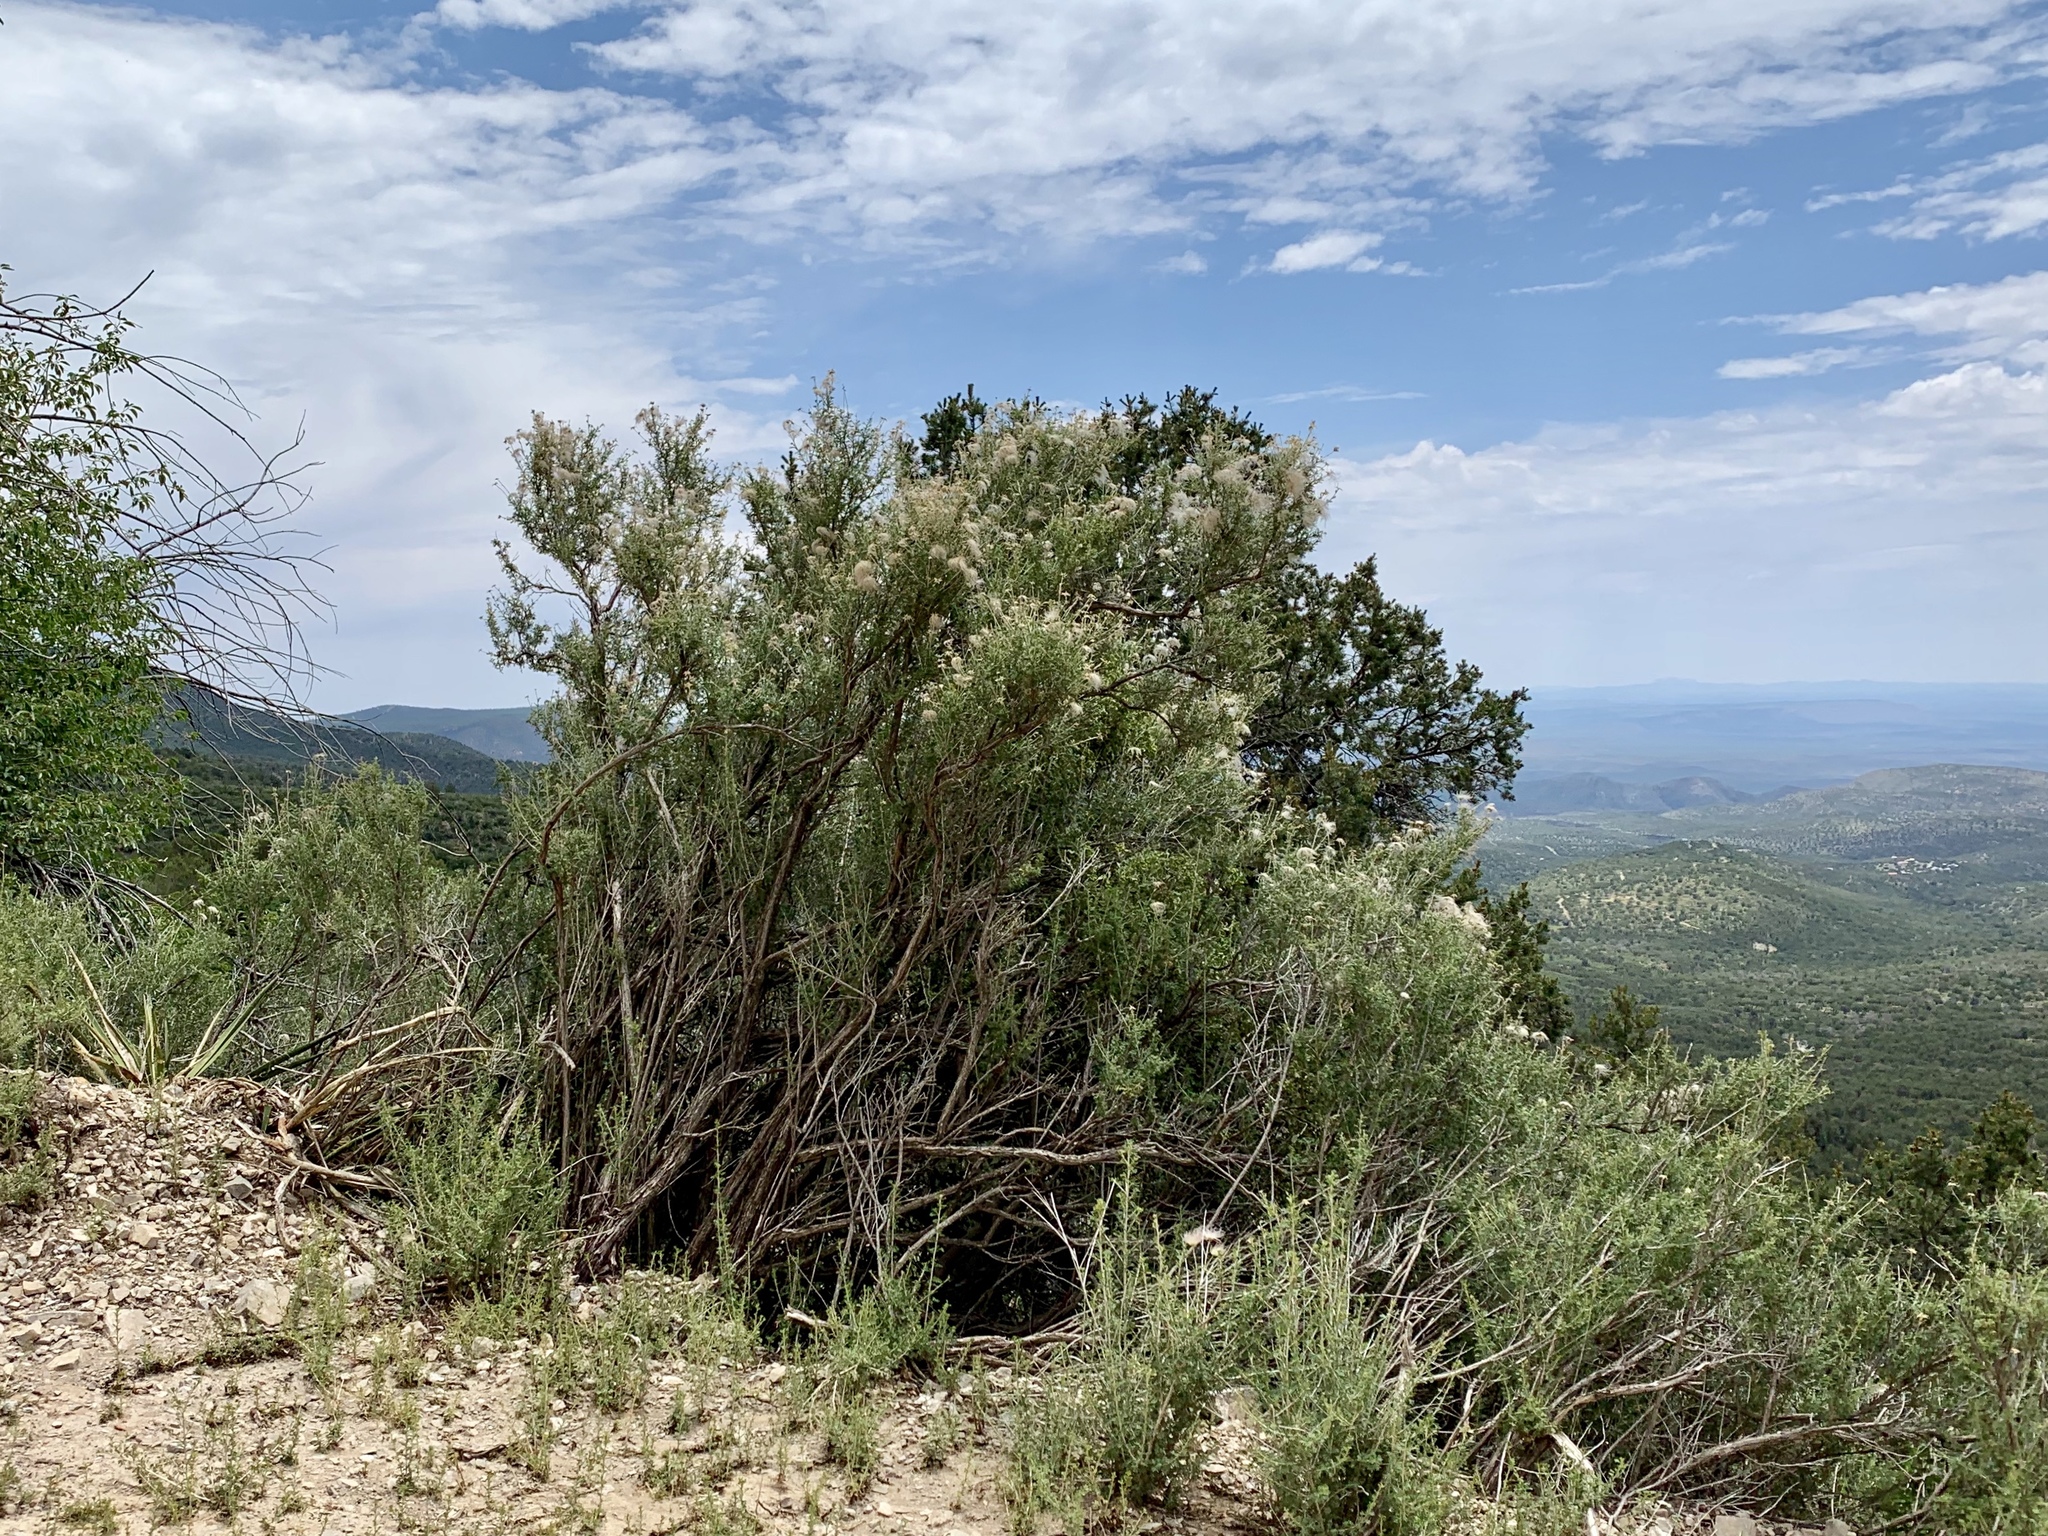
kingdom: Plantae
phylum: Tracheophyta
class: Magnoliopsida
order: Rosales
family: Rosaceae
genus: Fallugia
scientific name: Fallugia paradoxa
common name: Apache-plume
